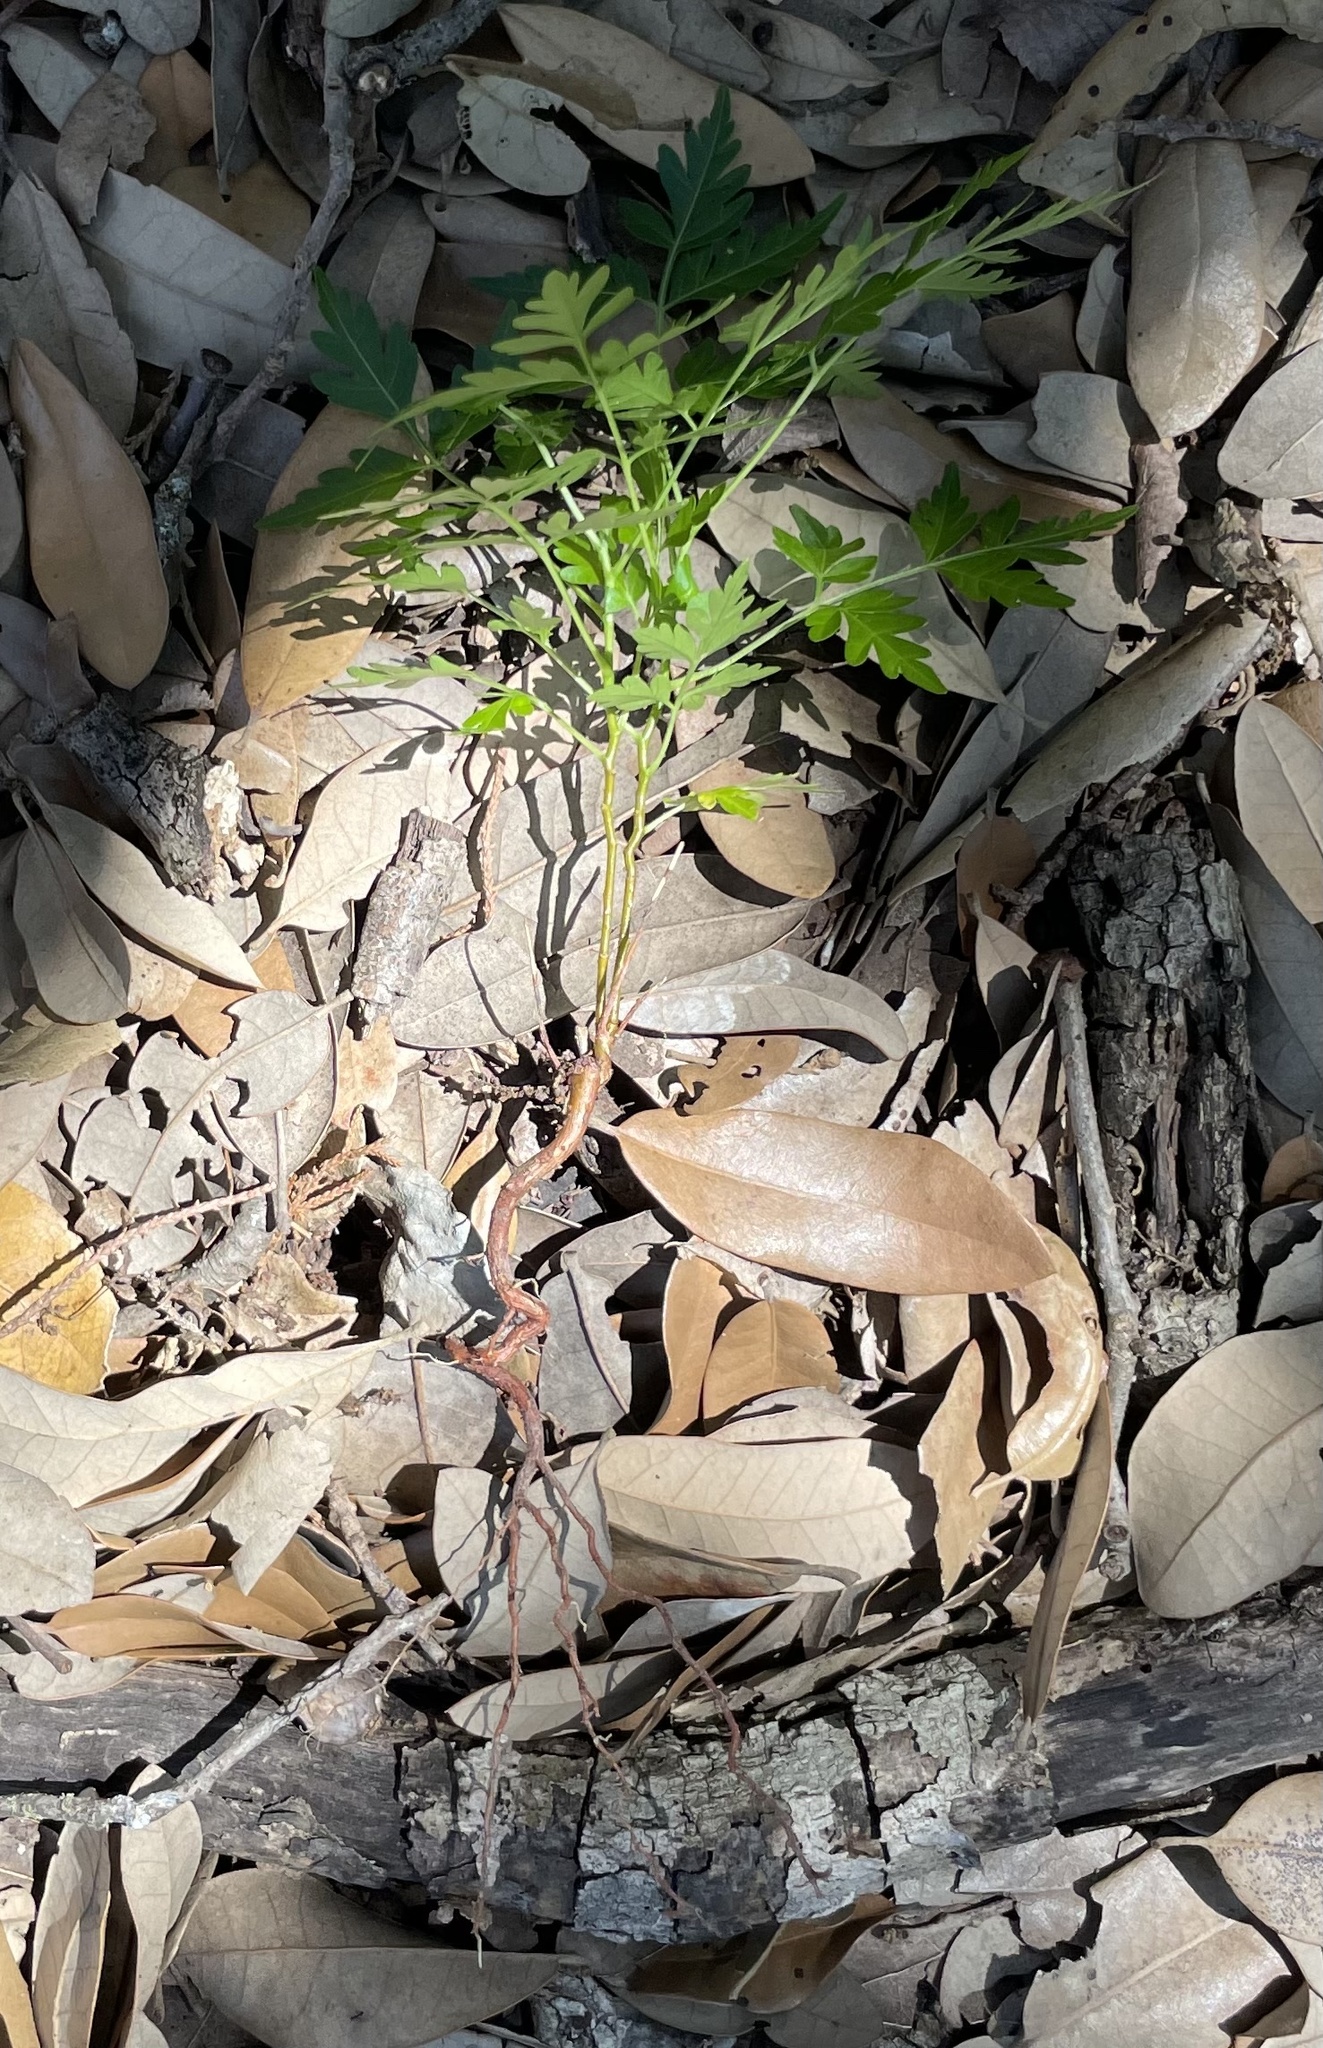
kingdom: Plantae
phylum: Tracheophyta
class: Magnoliopsida
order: Sapindales
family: Meliaceae
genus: Melia
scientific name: Melia azedarach
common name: Chinaberrytree
